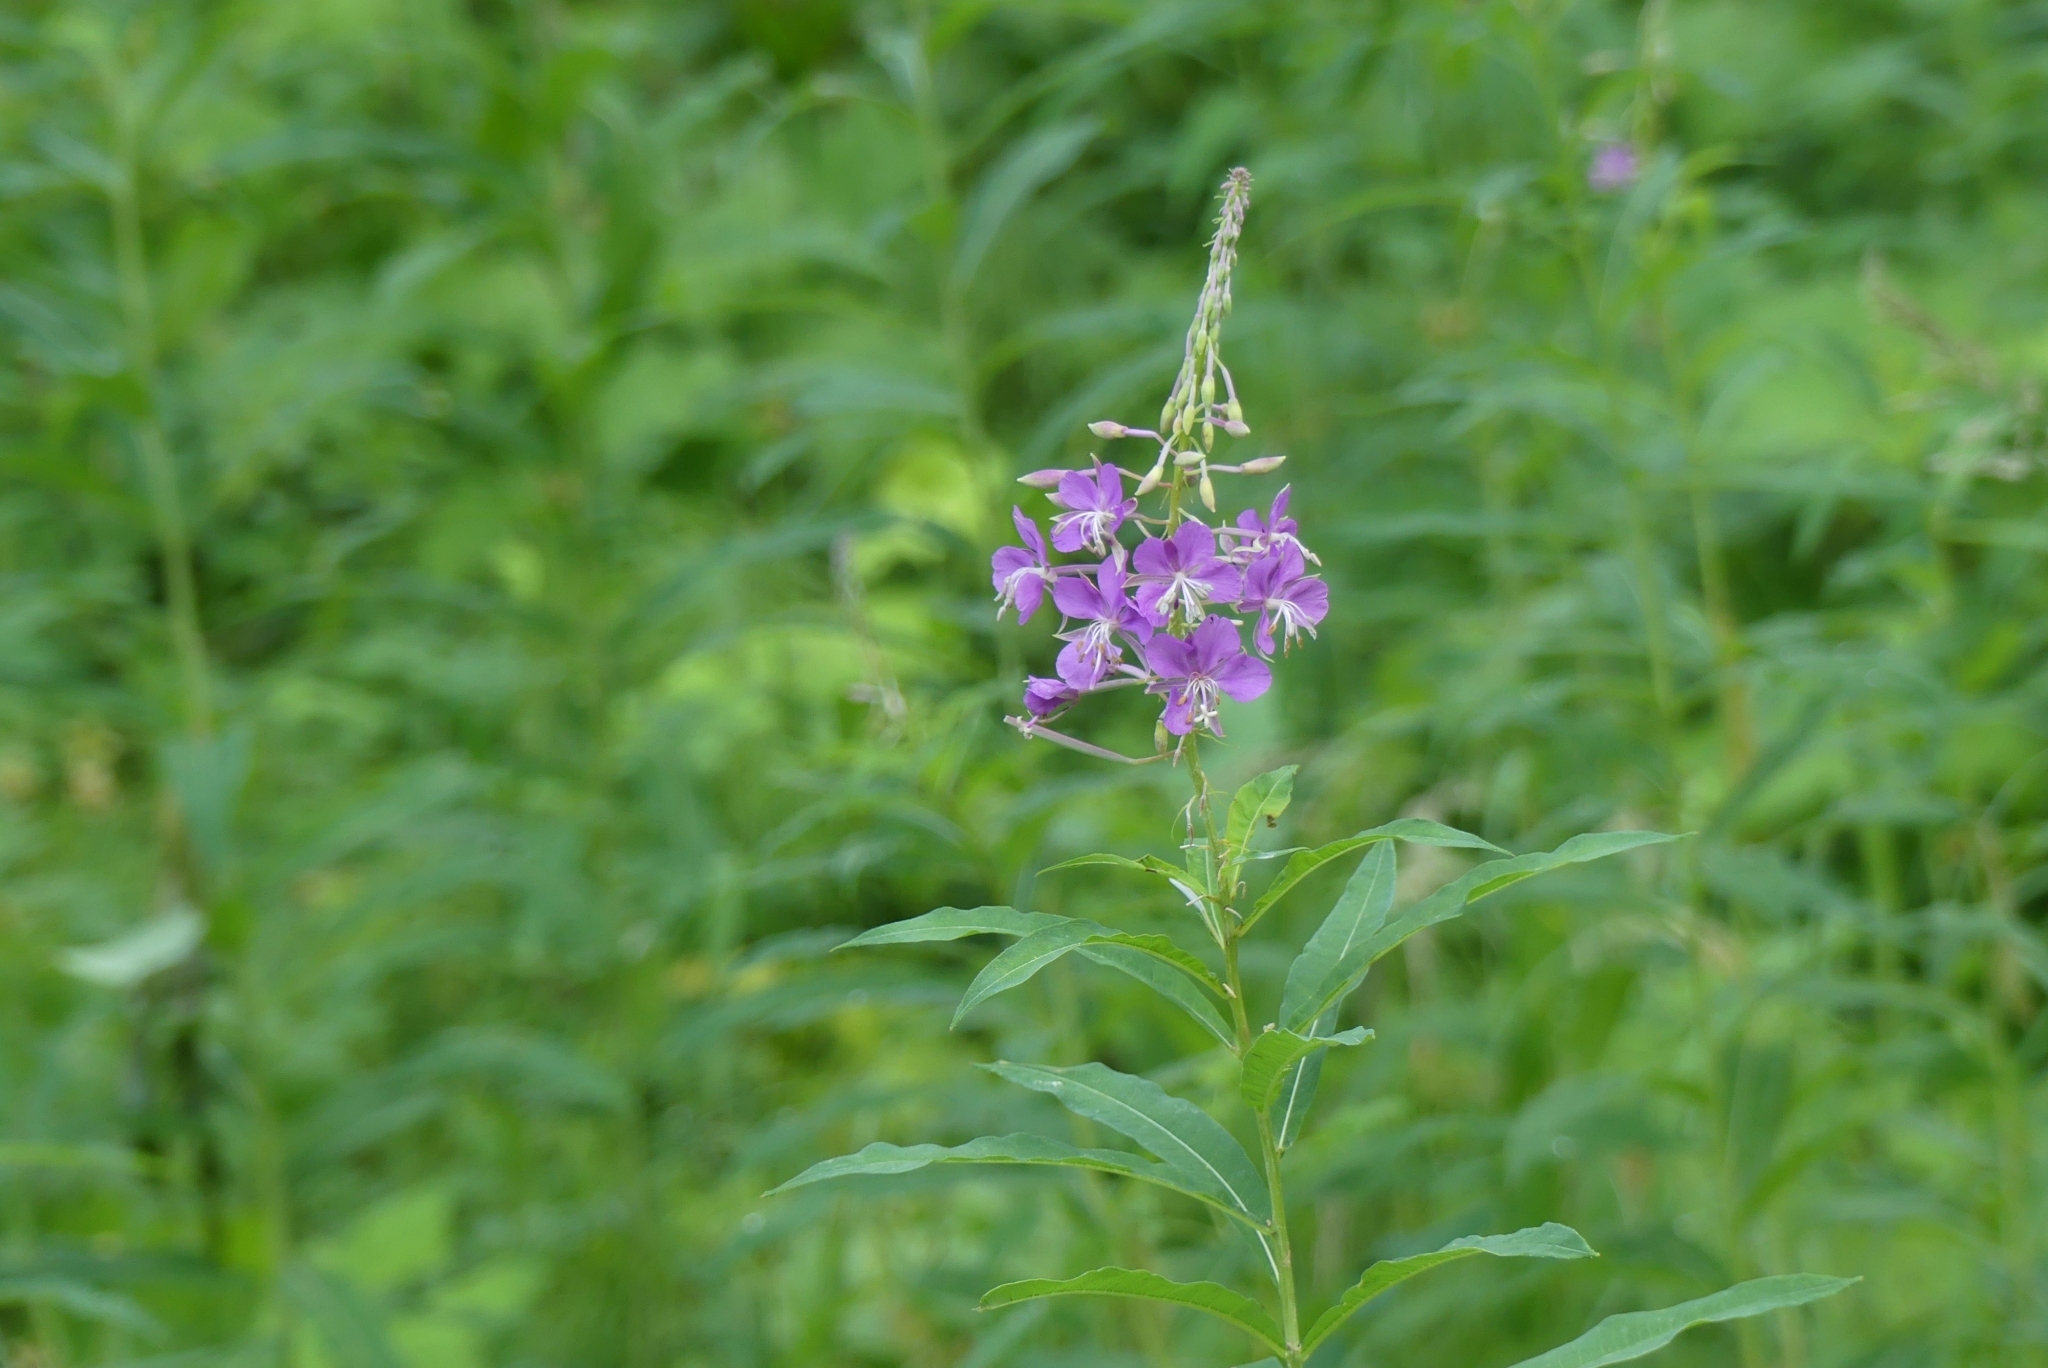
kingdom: Plantae
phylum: Tracheophyta
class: Magnoliopsida
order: Myrtales
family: Onagraceae
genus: Chamaenerion
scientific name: Chamaenerion angustifolium
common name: Fireweed
